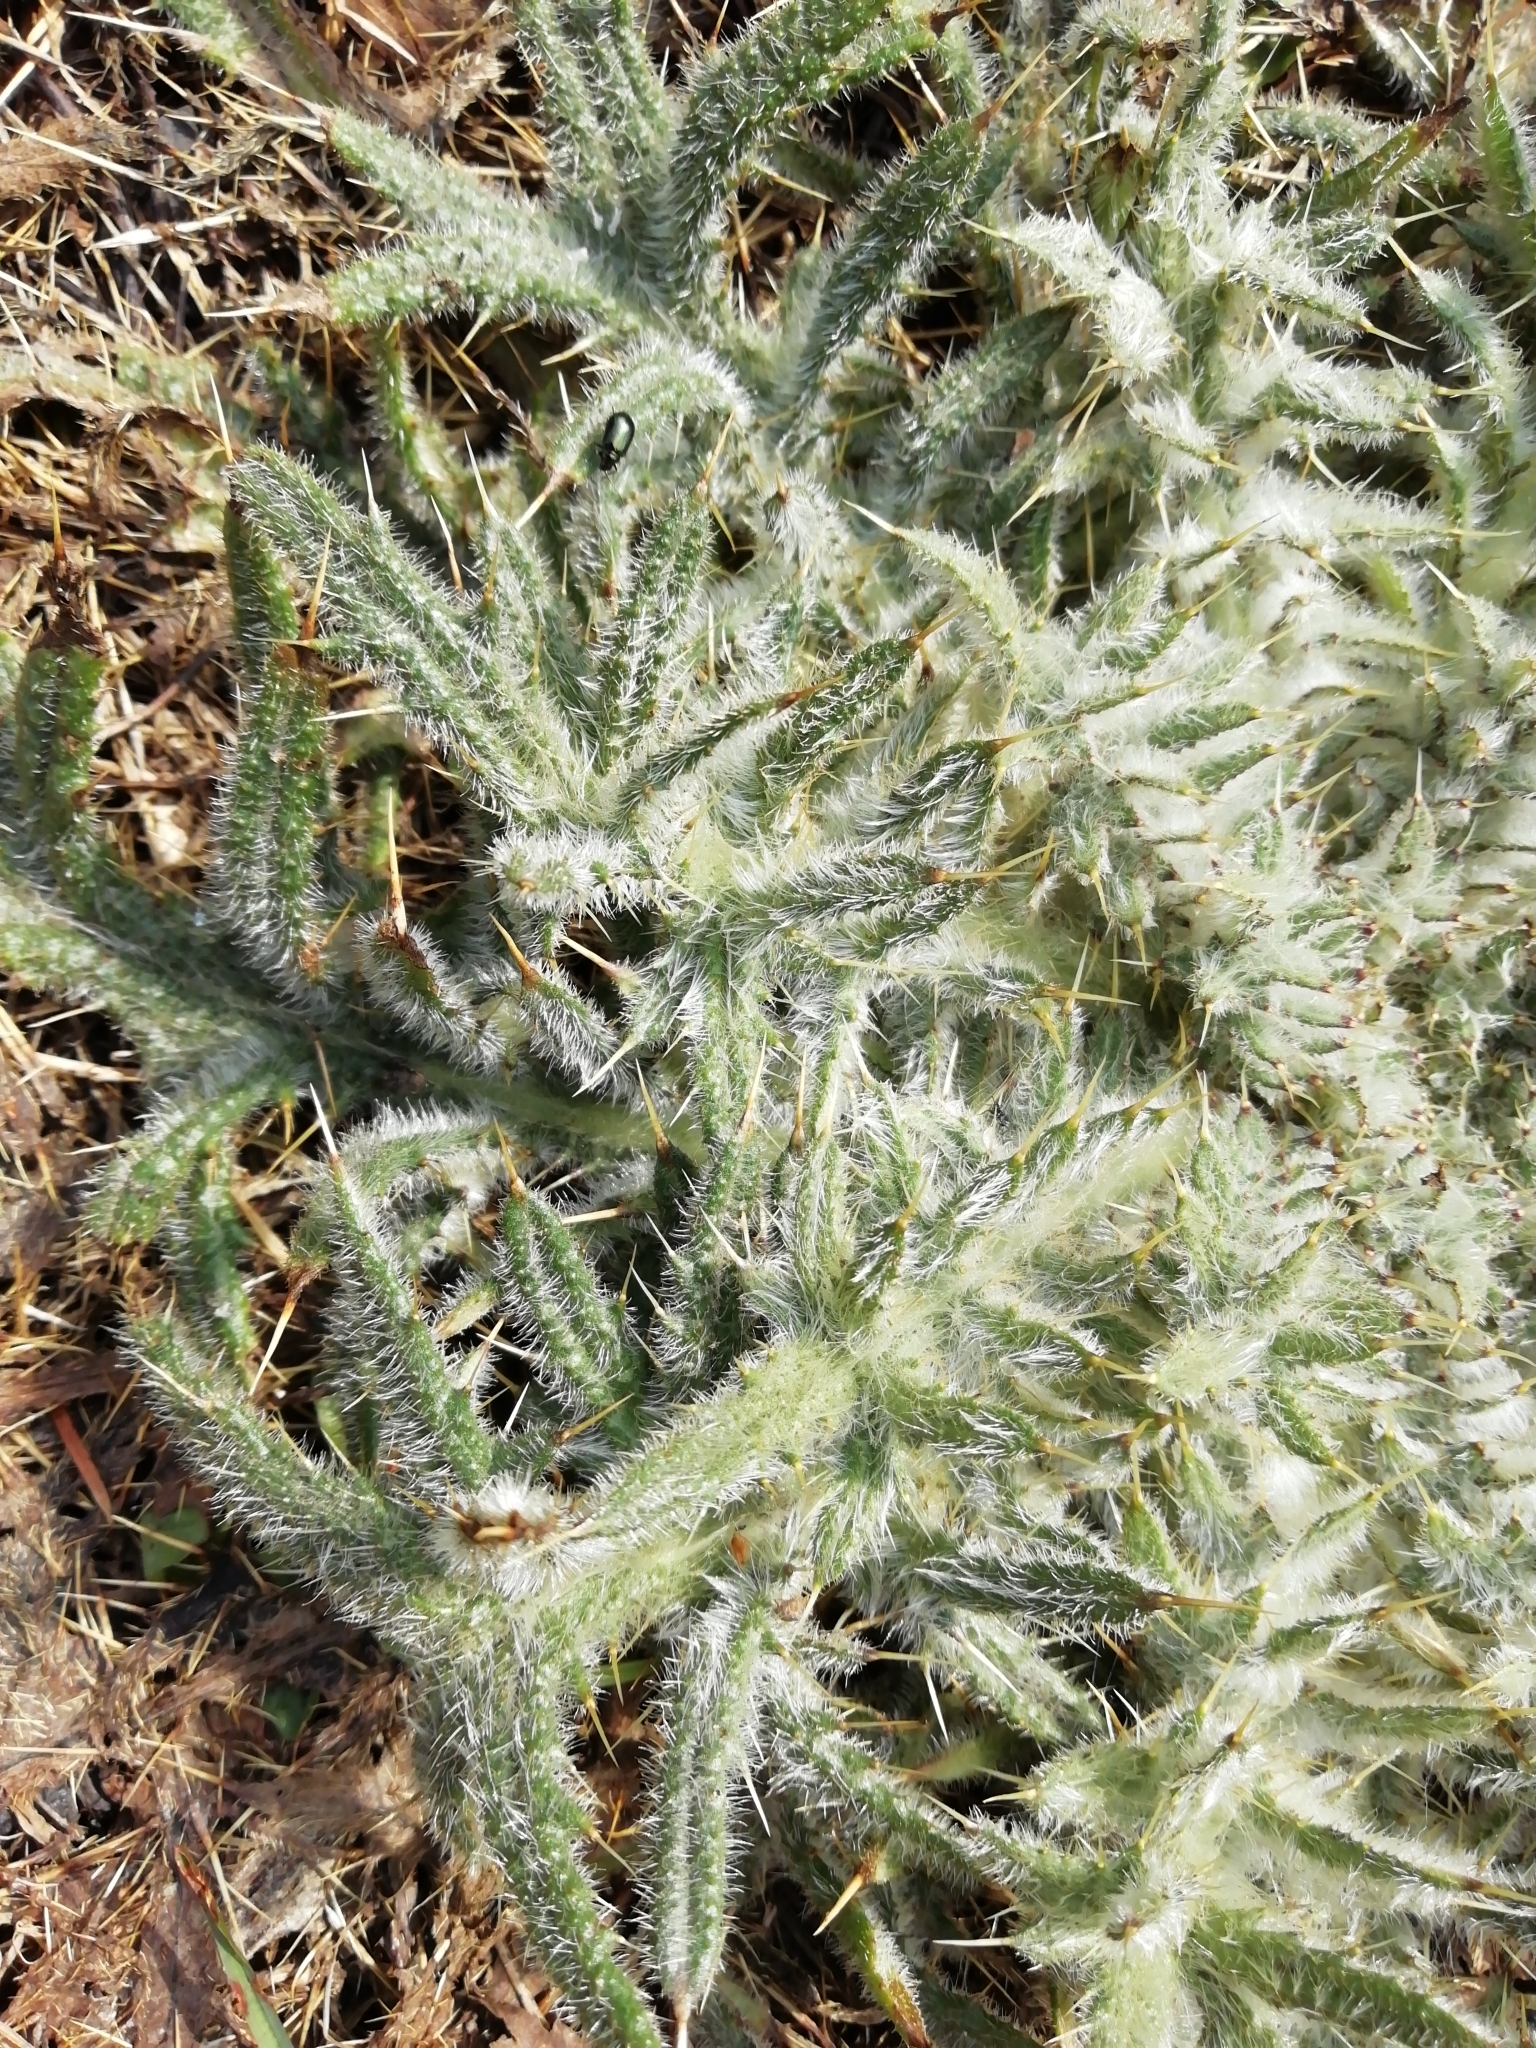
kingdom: Plantae
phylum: Tracheophyta
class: Magnoliopsida
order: Asterales
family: Asteraceae
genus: Cirsium
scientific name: Cirsium vulgare
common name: Bull thistle
